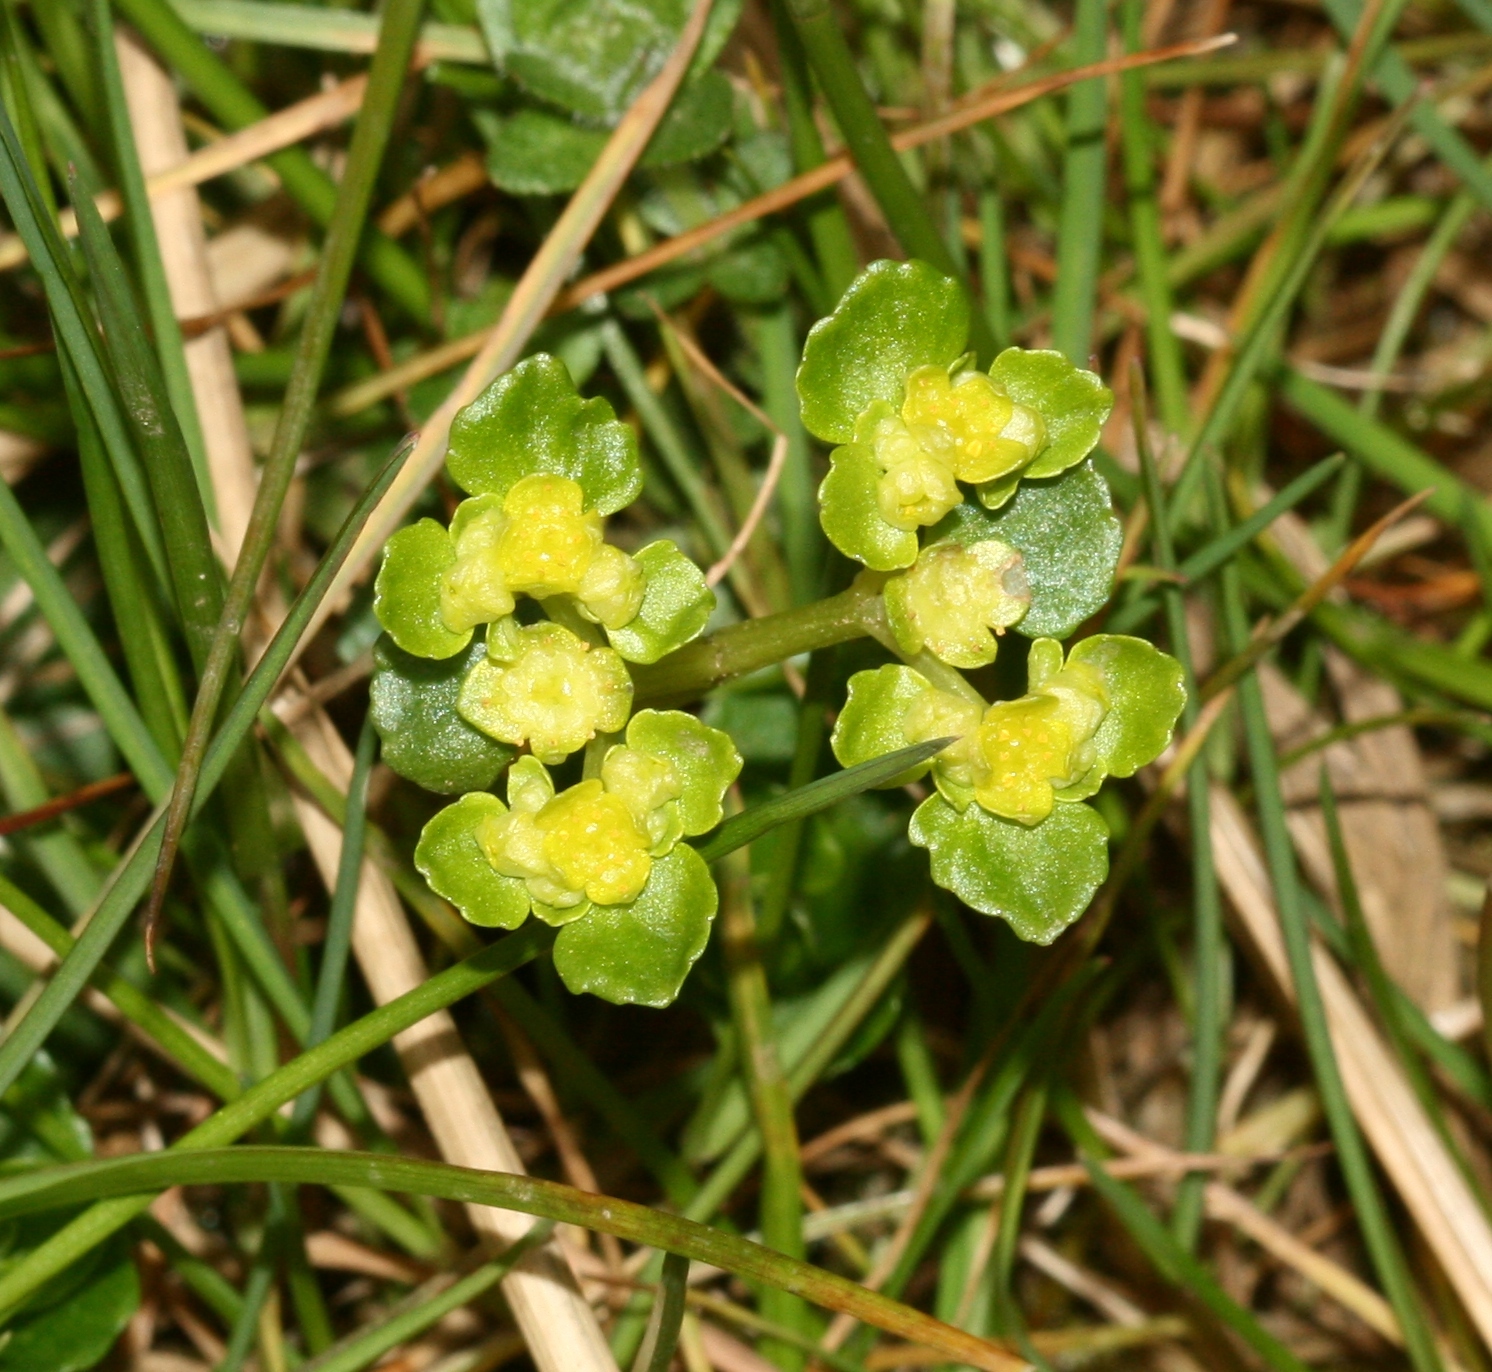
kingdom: Plantae
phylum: Tracheophyta
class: Magnoliopsida
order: Saxifragales
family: Saxifragaceae
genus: Chrysosplenium
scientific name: Chrysosplenium oppositifolium
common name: Opposite-leaved golden-saxifrage
